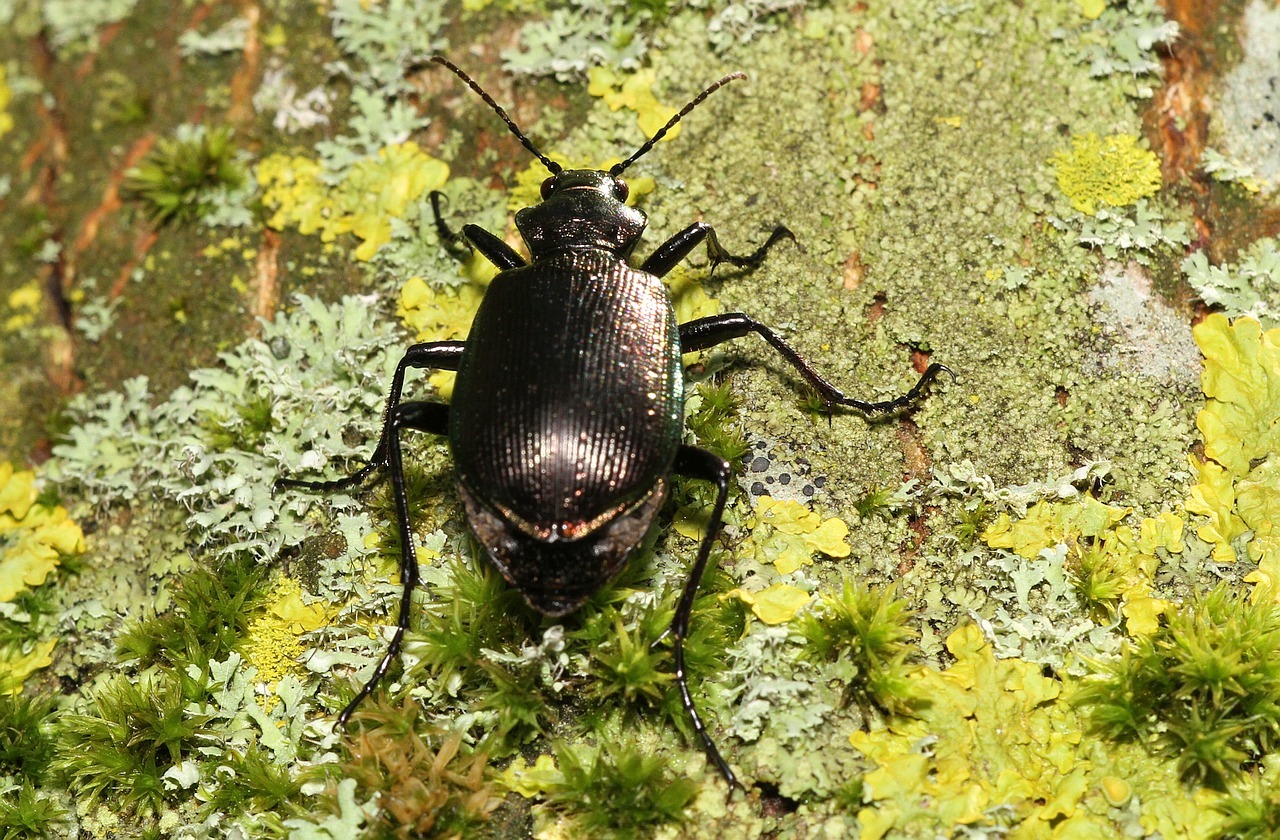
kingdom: Animalia
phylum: Arthropoda
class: Insecta
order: Coleoptera
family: Carabidae
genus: Calosoma
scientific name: Calosoma inquisitor
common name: Caterpillar-hunter
